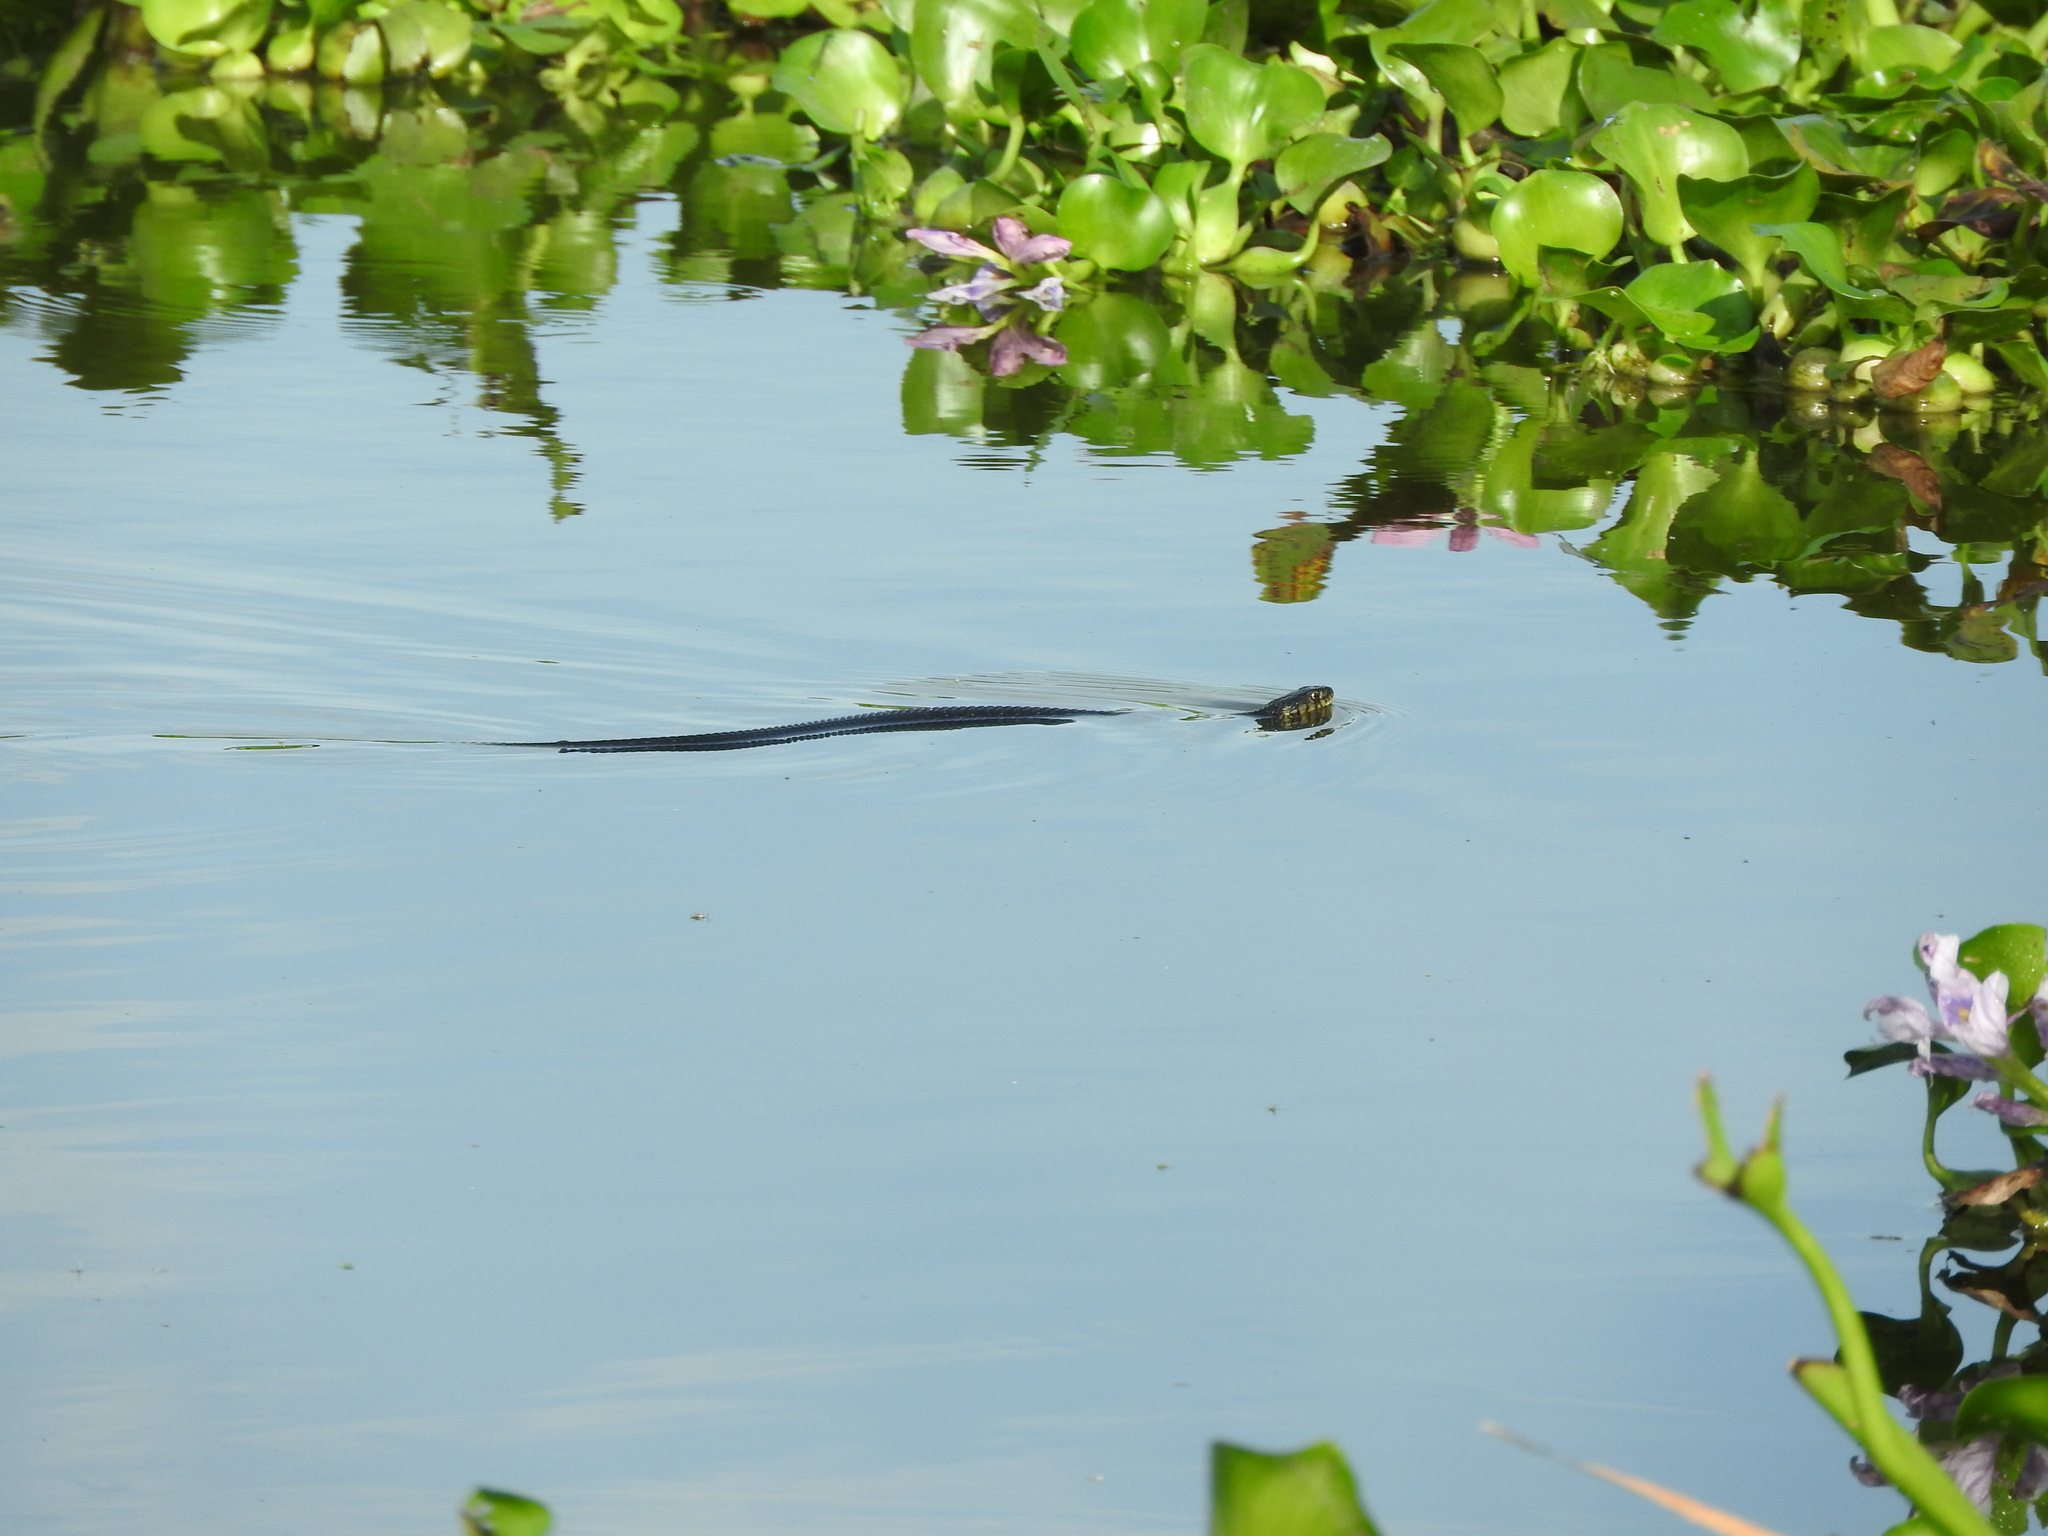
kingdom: Animalia
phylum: Chordata
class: Squamata
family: Colubridae
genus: Thamnophis
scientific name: Thamnophis eques
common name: Mexican garter snake
